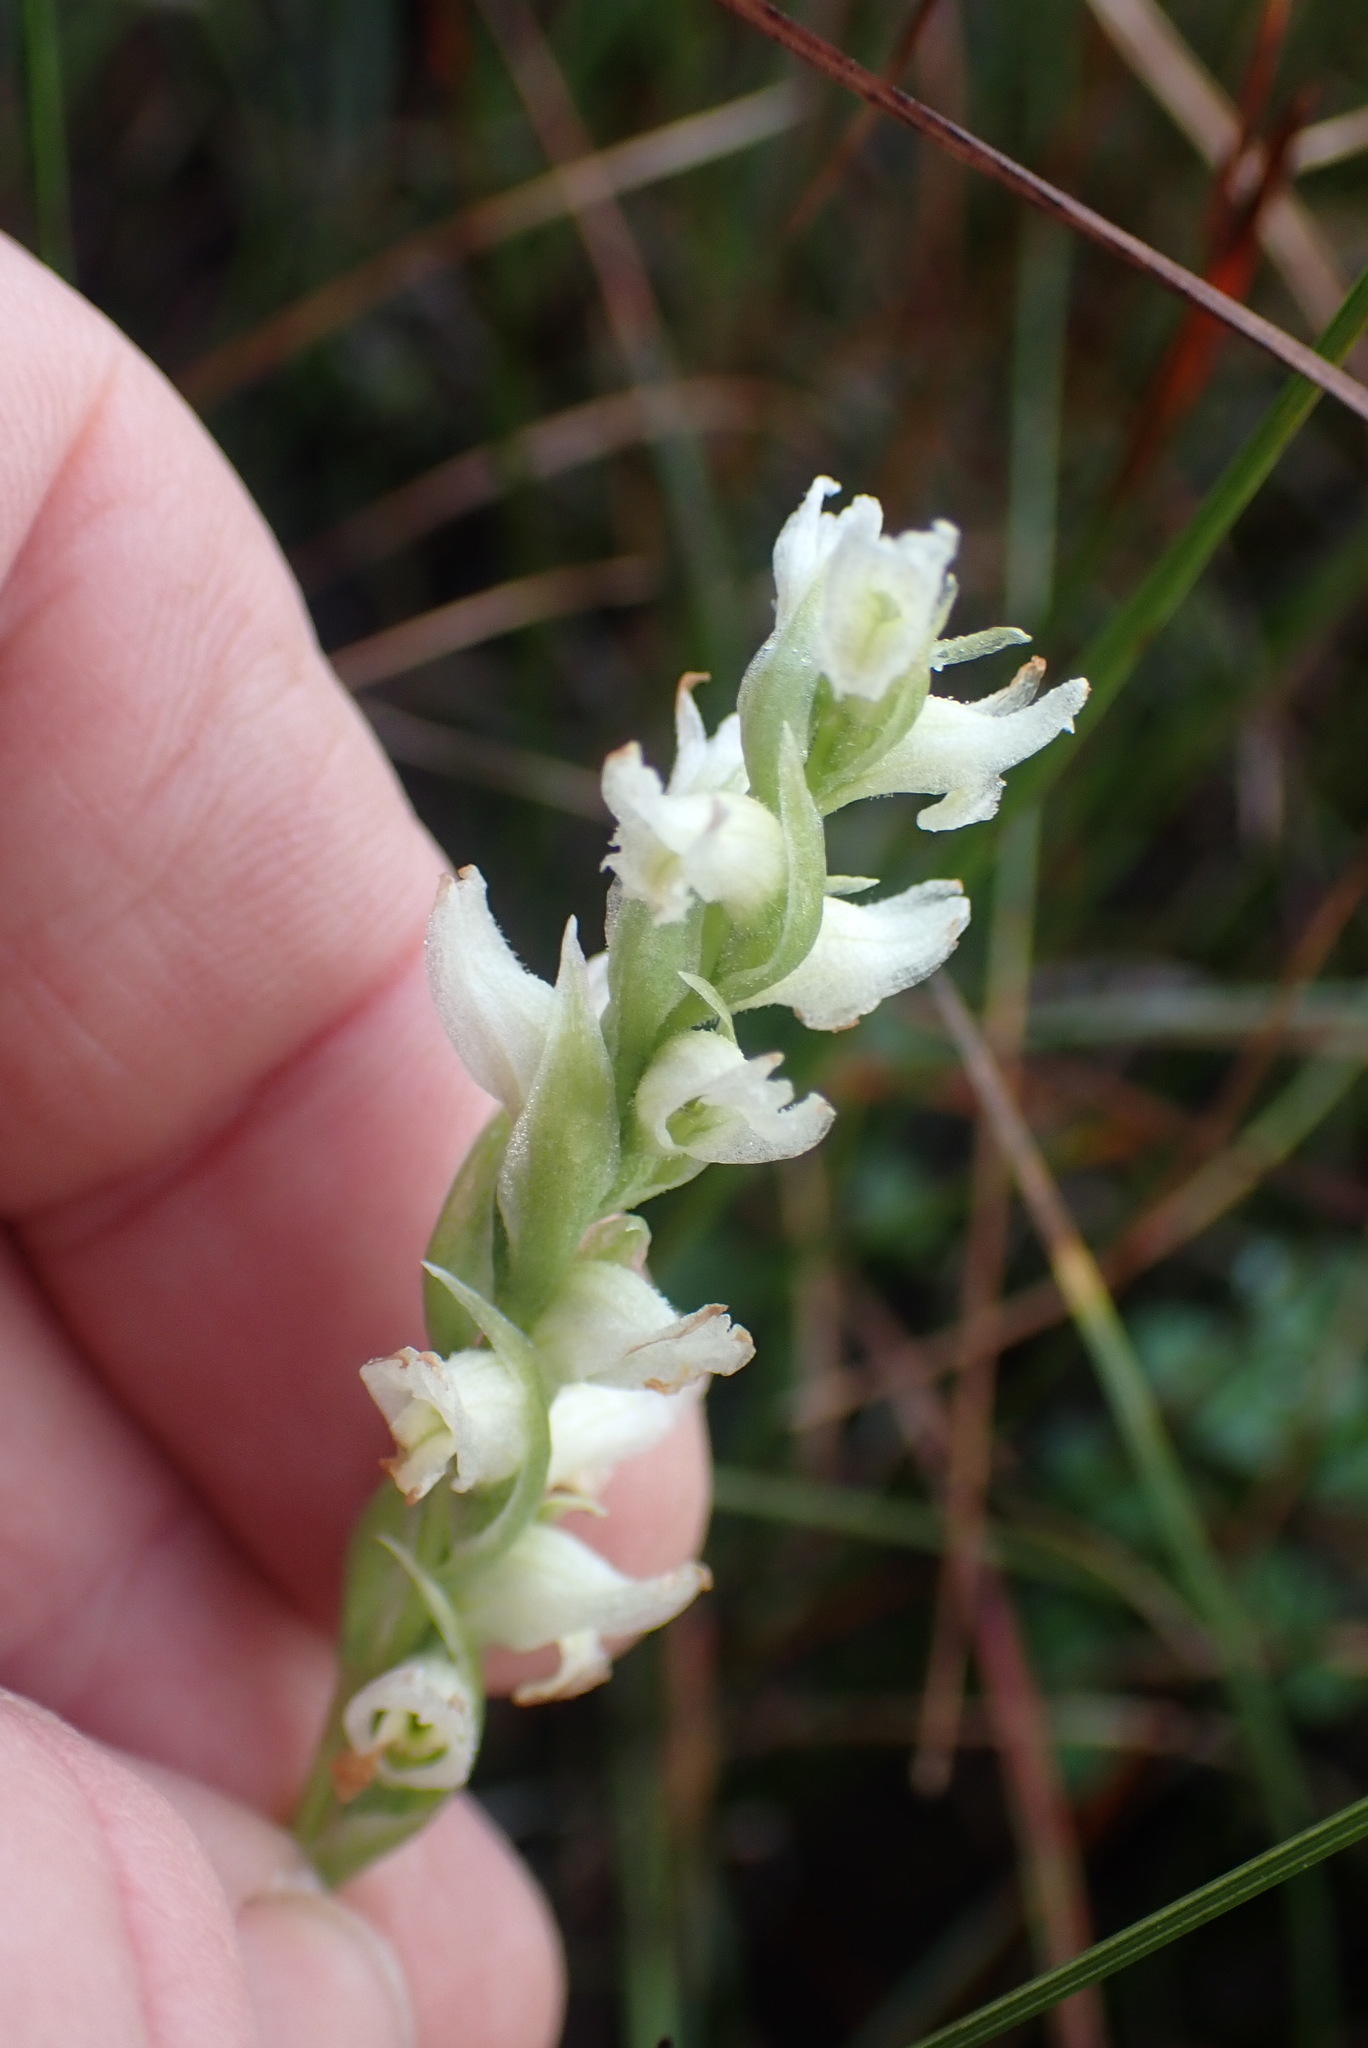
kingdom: Plantae
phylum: Tracheophyta
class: Liliopsida
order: Asparagales
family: Orchidaceae
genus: Spiranthes
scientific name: Spiranthes romanzoffiana
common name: Irish lady's-tresses
